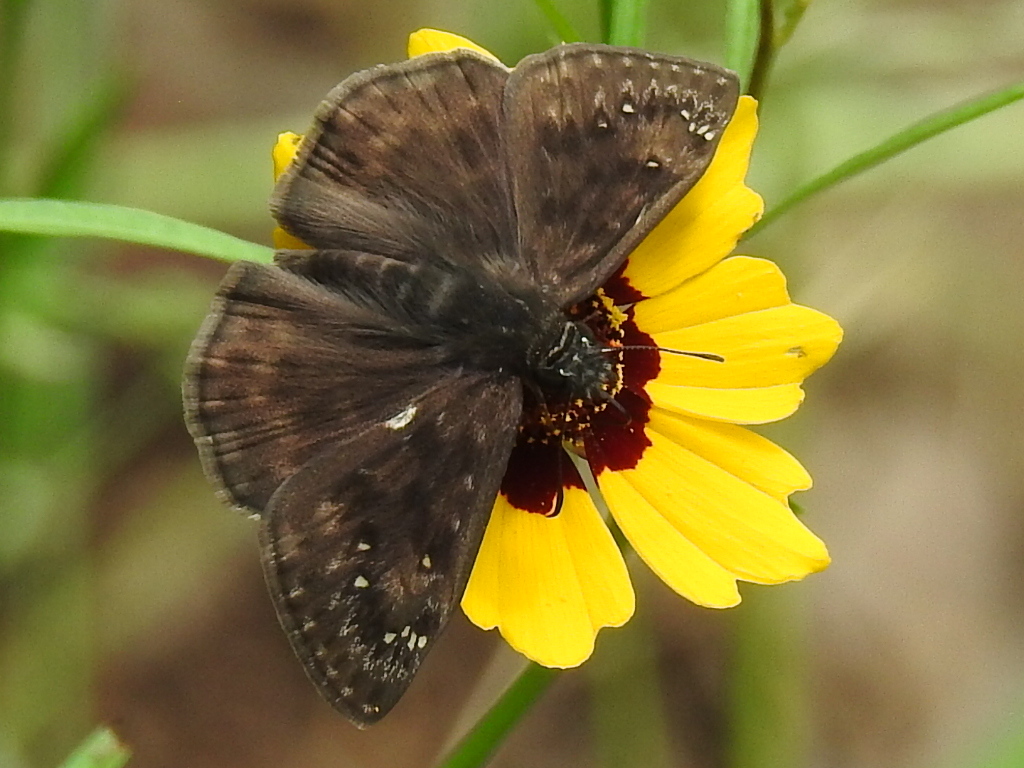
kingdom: Animalia
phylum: Arthropoda
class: Insecta
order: Lepidoptera
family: Hesperiidae
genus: Erynnis
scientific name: Erynnis horatius
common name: Horace's duskywing
